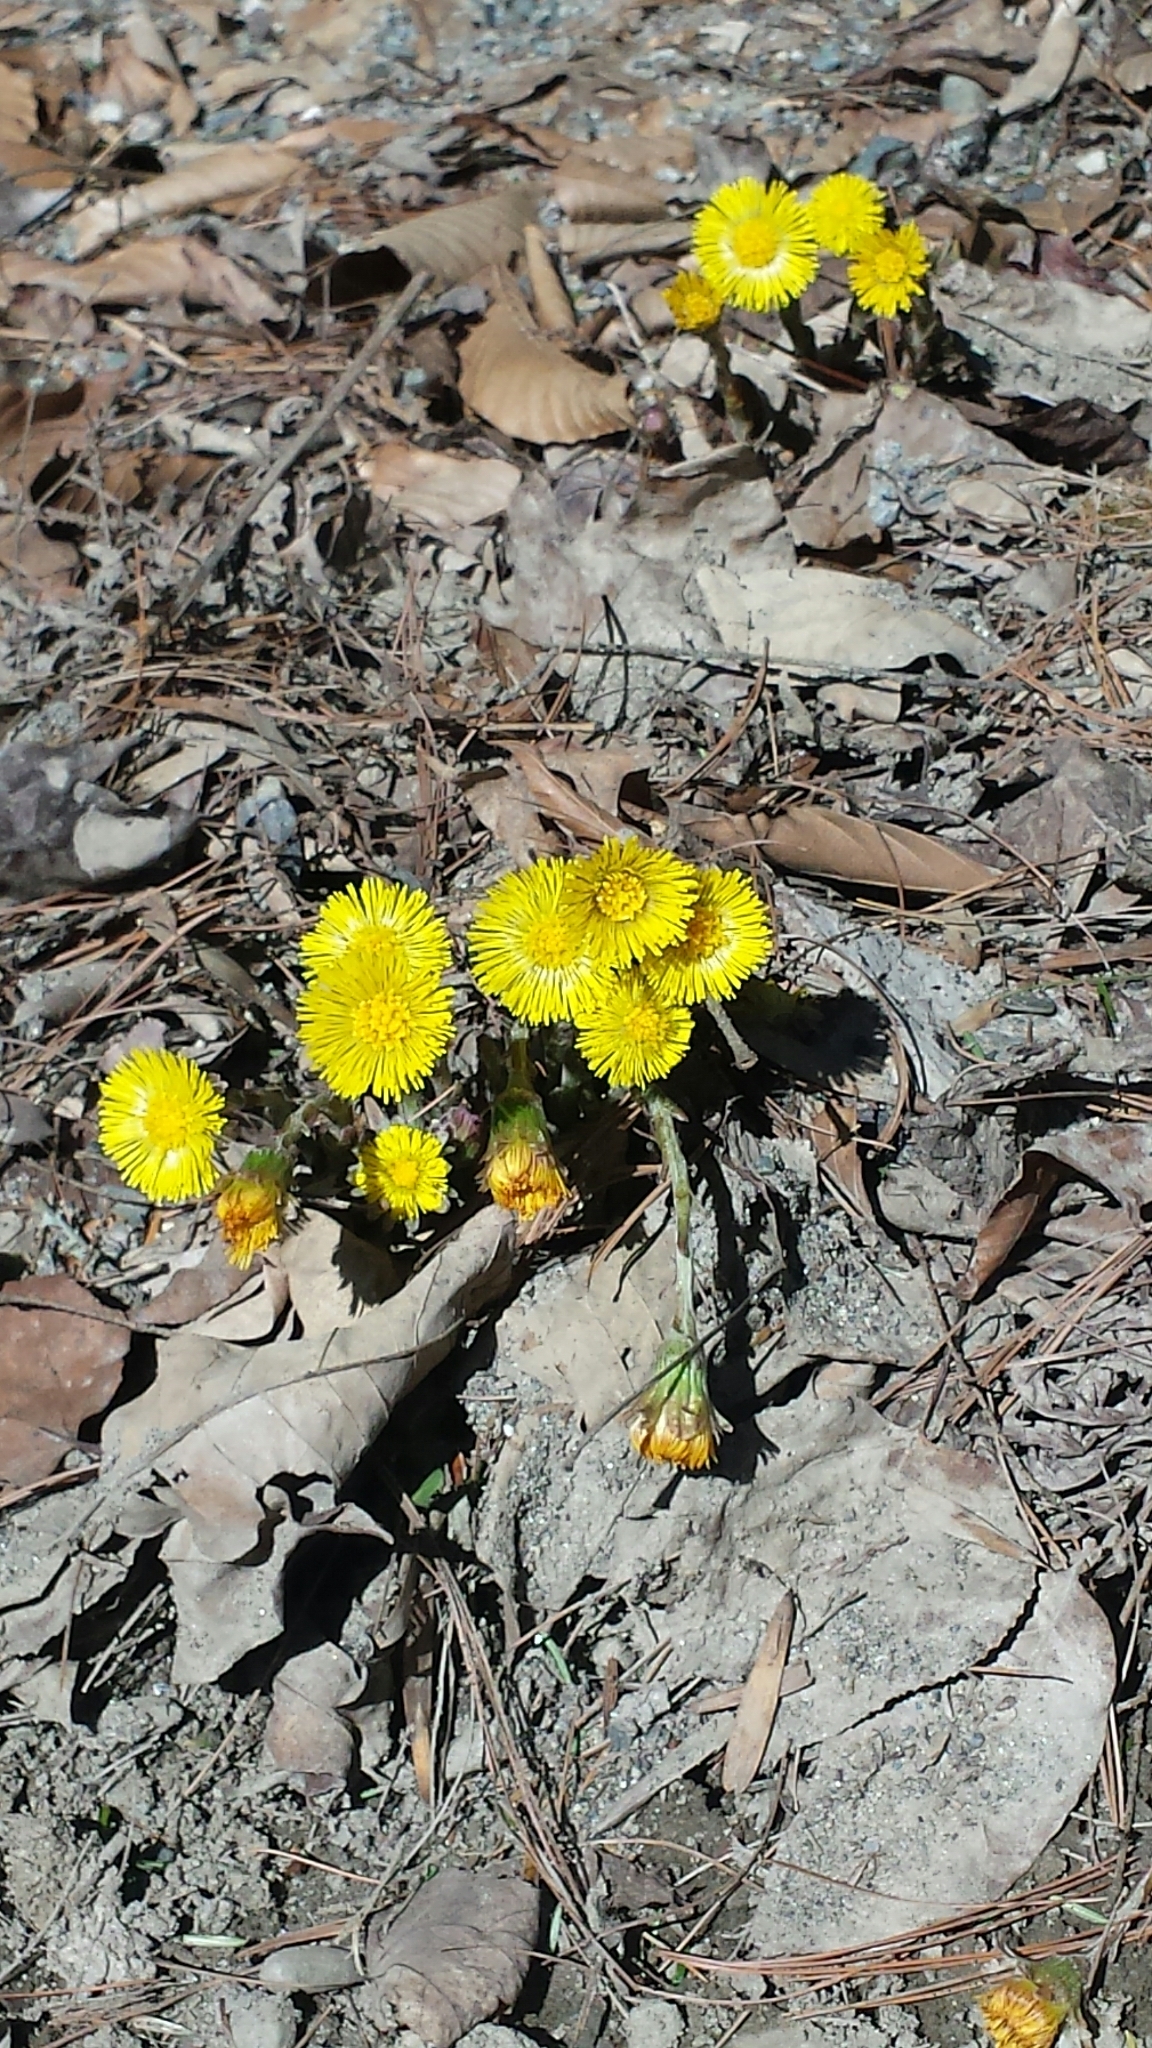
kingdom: Plantae
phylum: Tracheophyta
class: Magnoliopsida
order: Asterales
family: Asteraceae
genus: Tussilago
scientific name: Tussilago farfara
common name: Coltsfoot
